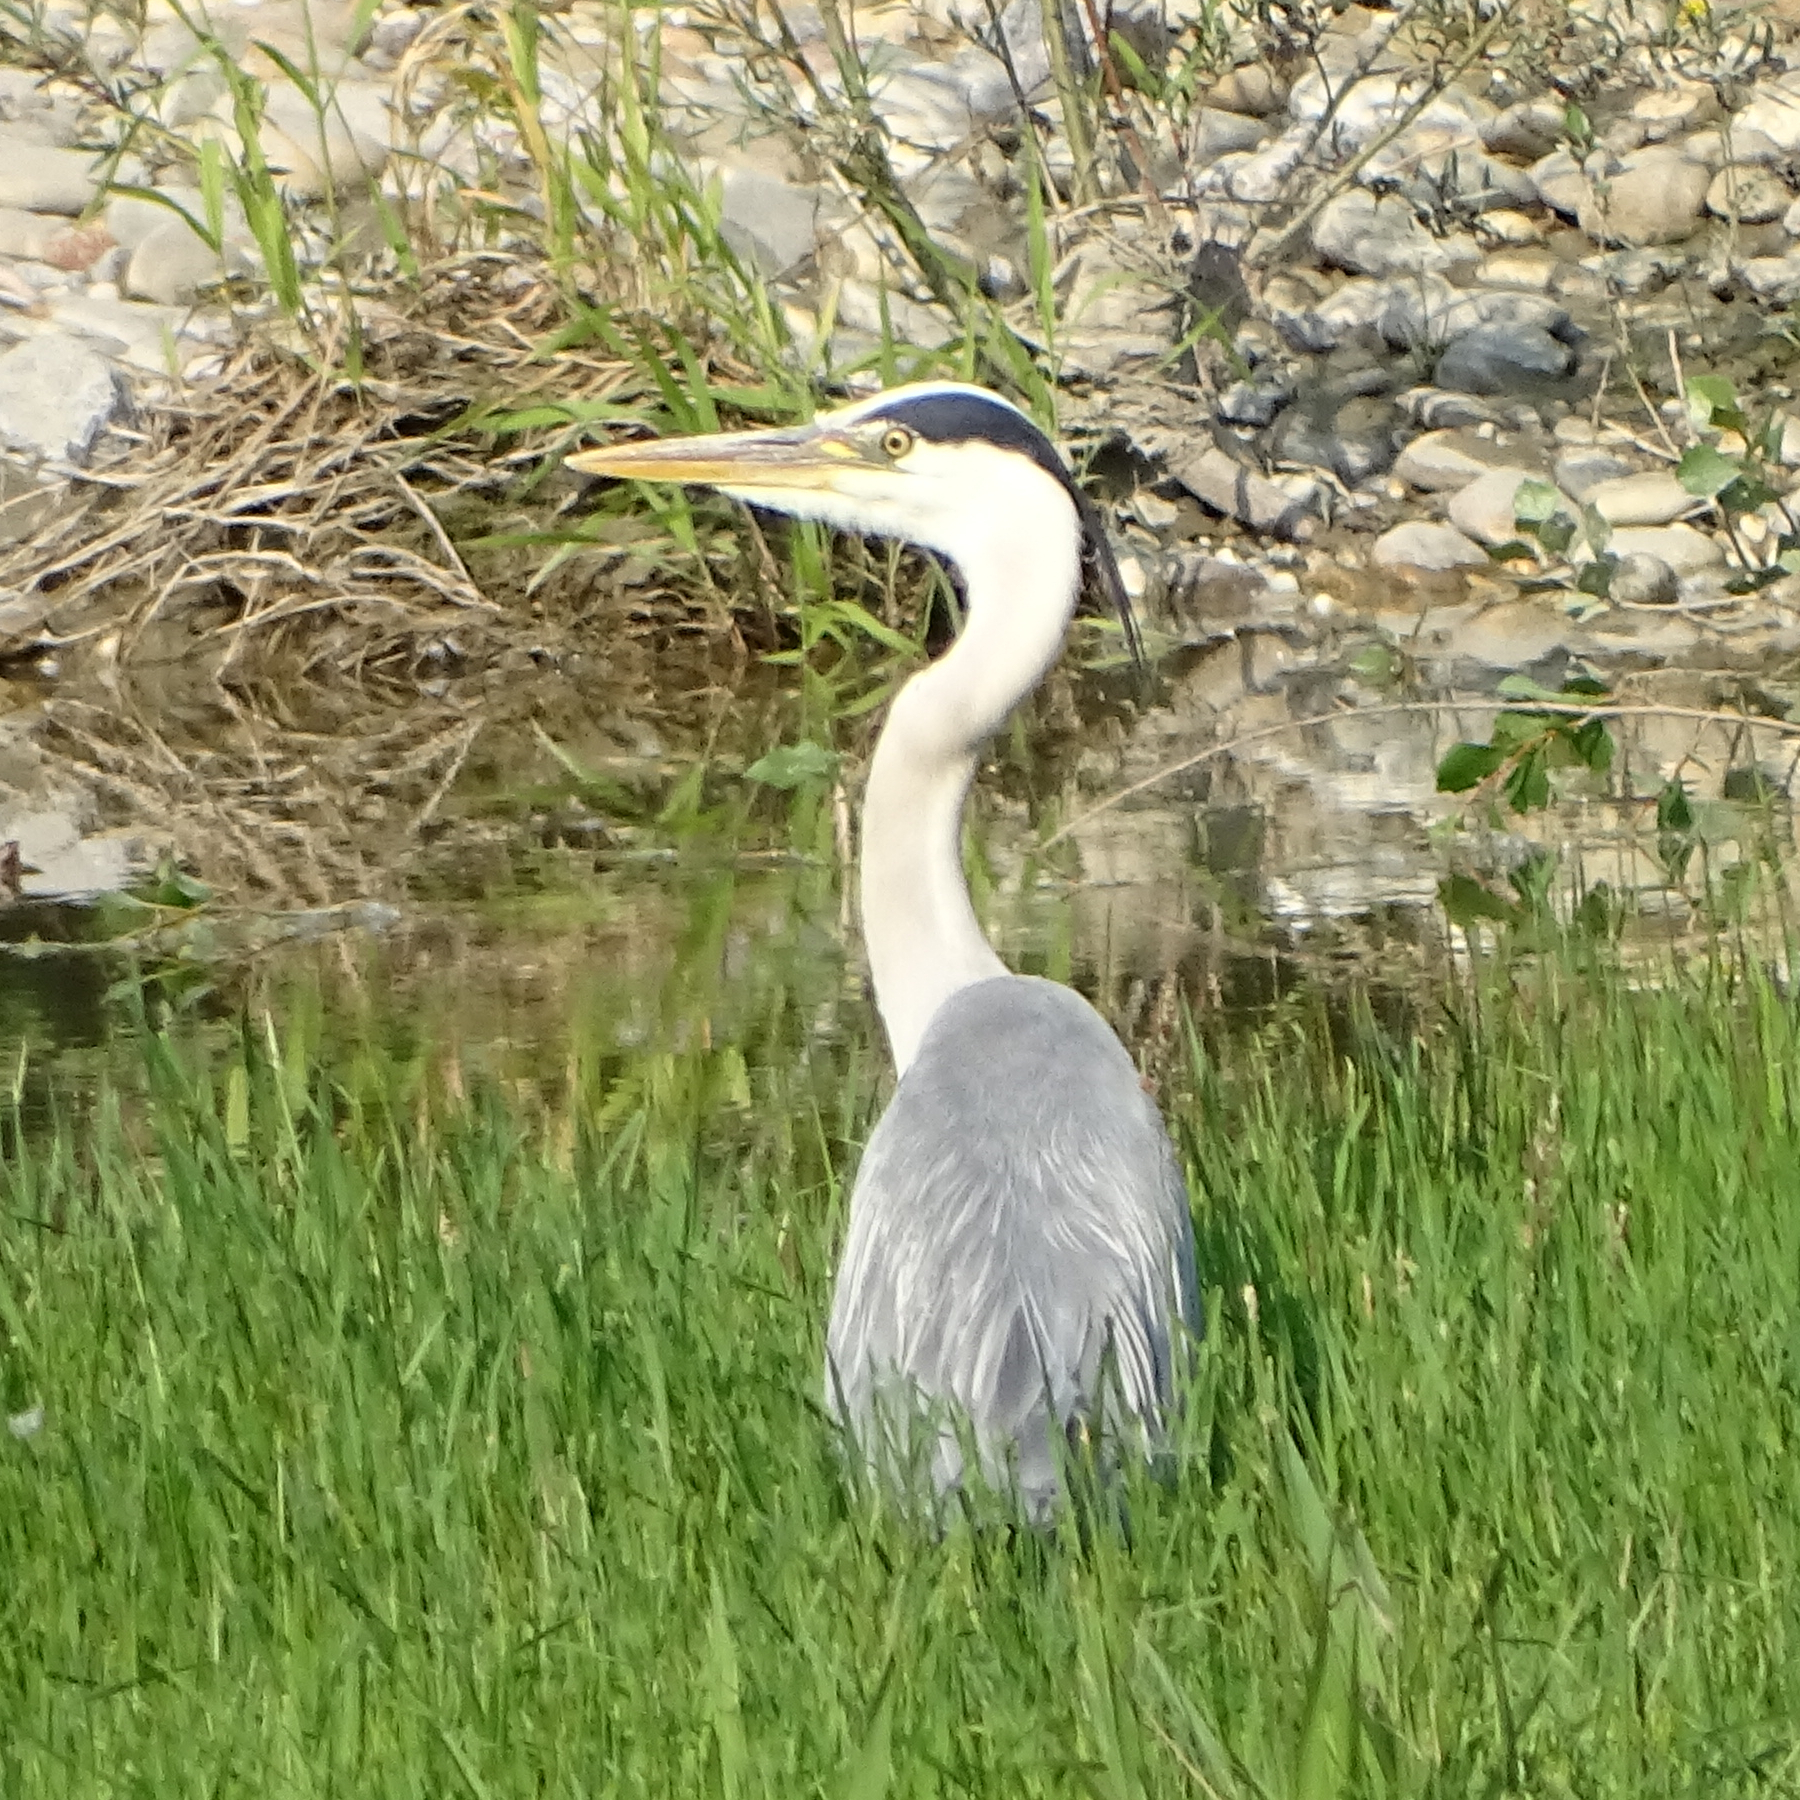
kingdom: Animalia
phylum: Chordata
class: Aves
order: Pelecaniformes
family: Ardeidae
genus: Ardea
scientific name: Ardea cinerea
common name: Grey heron
